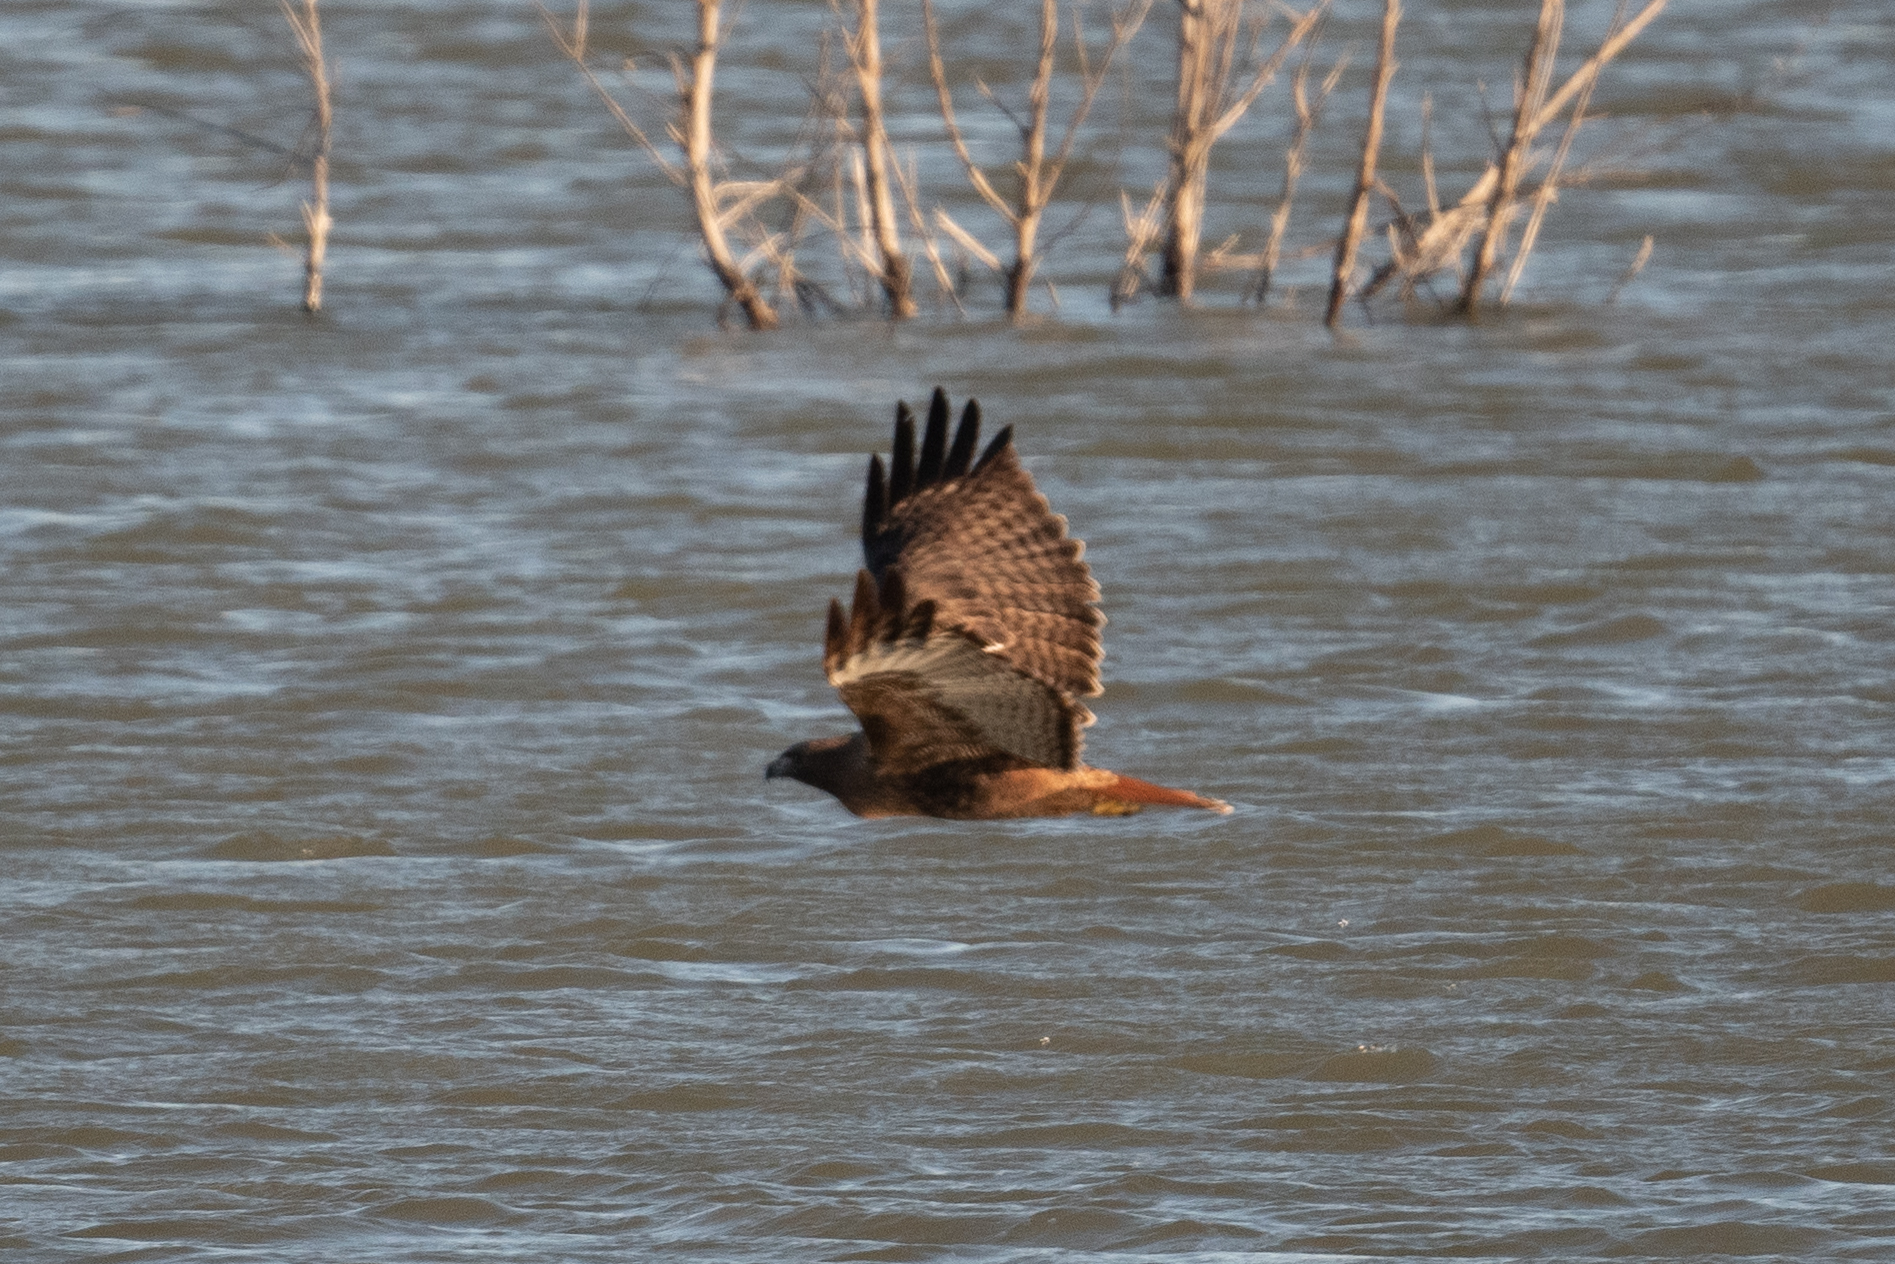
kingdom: Animalia
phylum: Chordata
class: Aves
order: Accipitriformes
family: Accipitridae
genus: Buteo
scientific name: Buteo jamaicensis
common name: Red-tailed hawk
